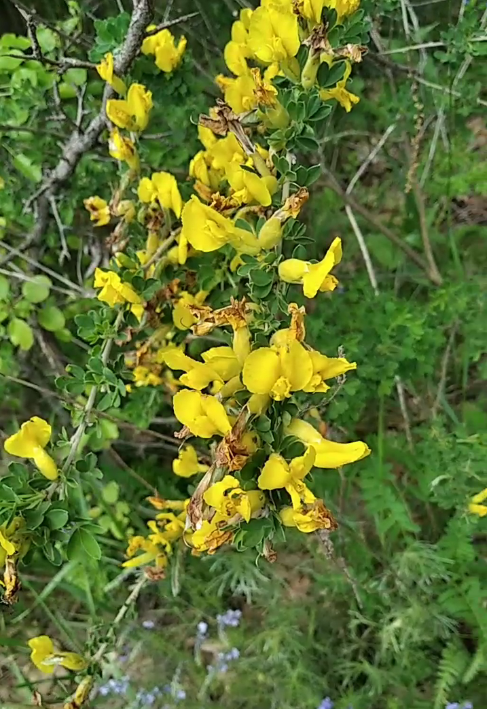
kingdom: Plantae
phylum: Tracheophyta
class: Magnoliopsida
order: Fabales
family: Fabaceae
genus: Chamaecytisus
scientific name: Chamaecytisus ruthenicus
